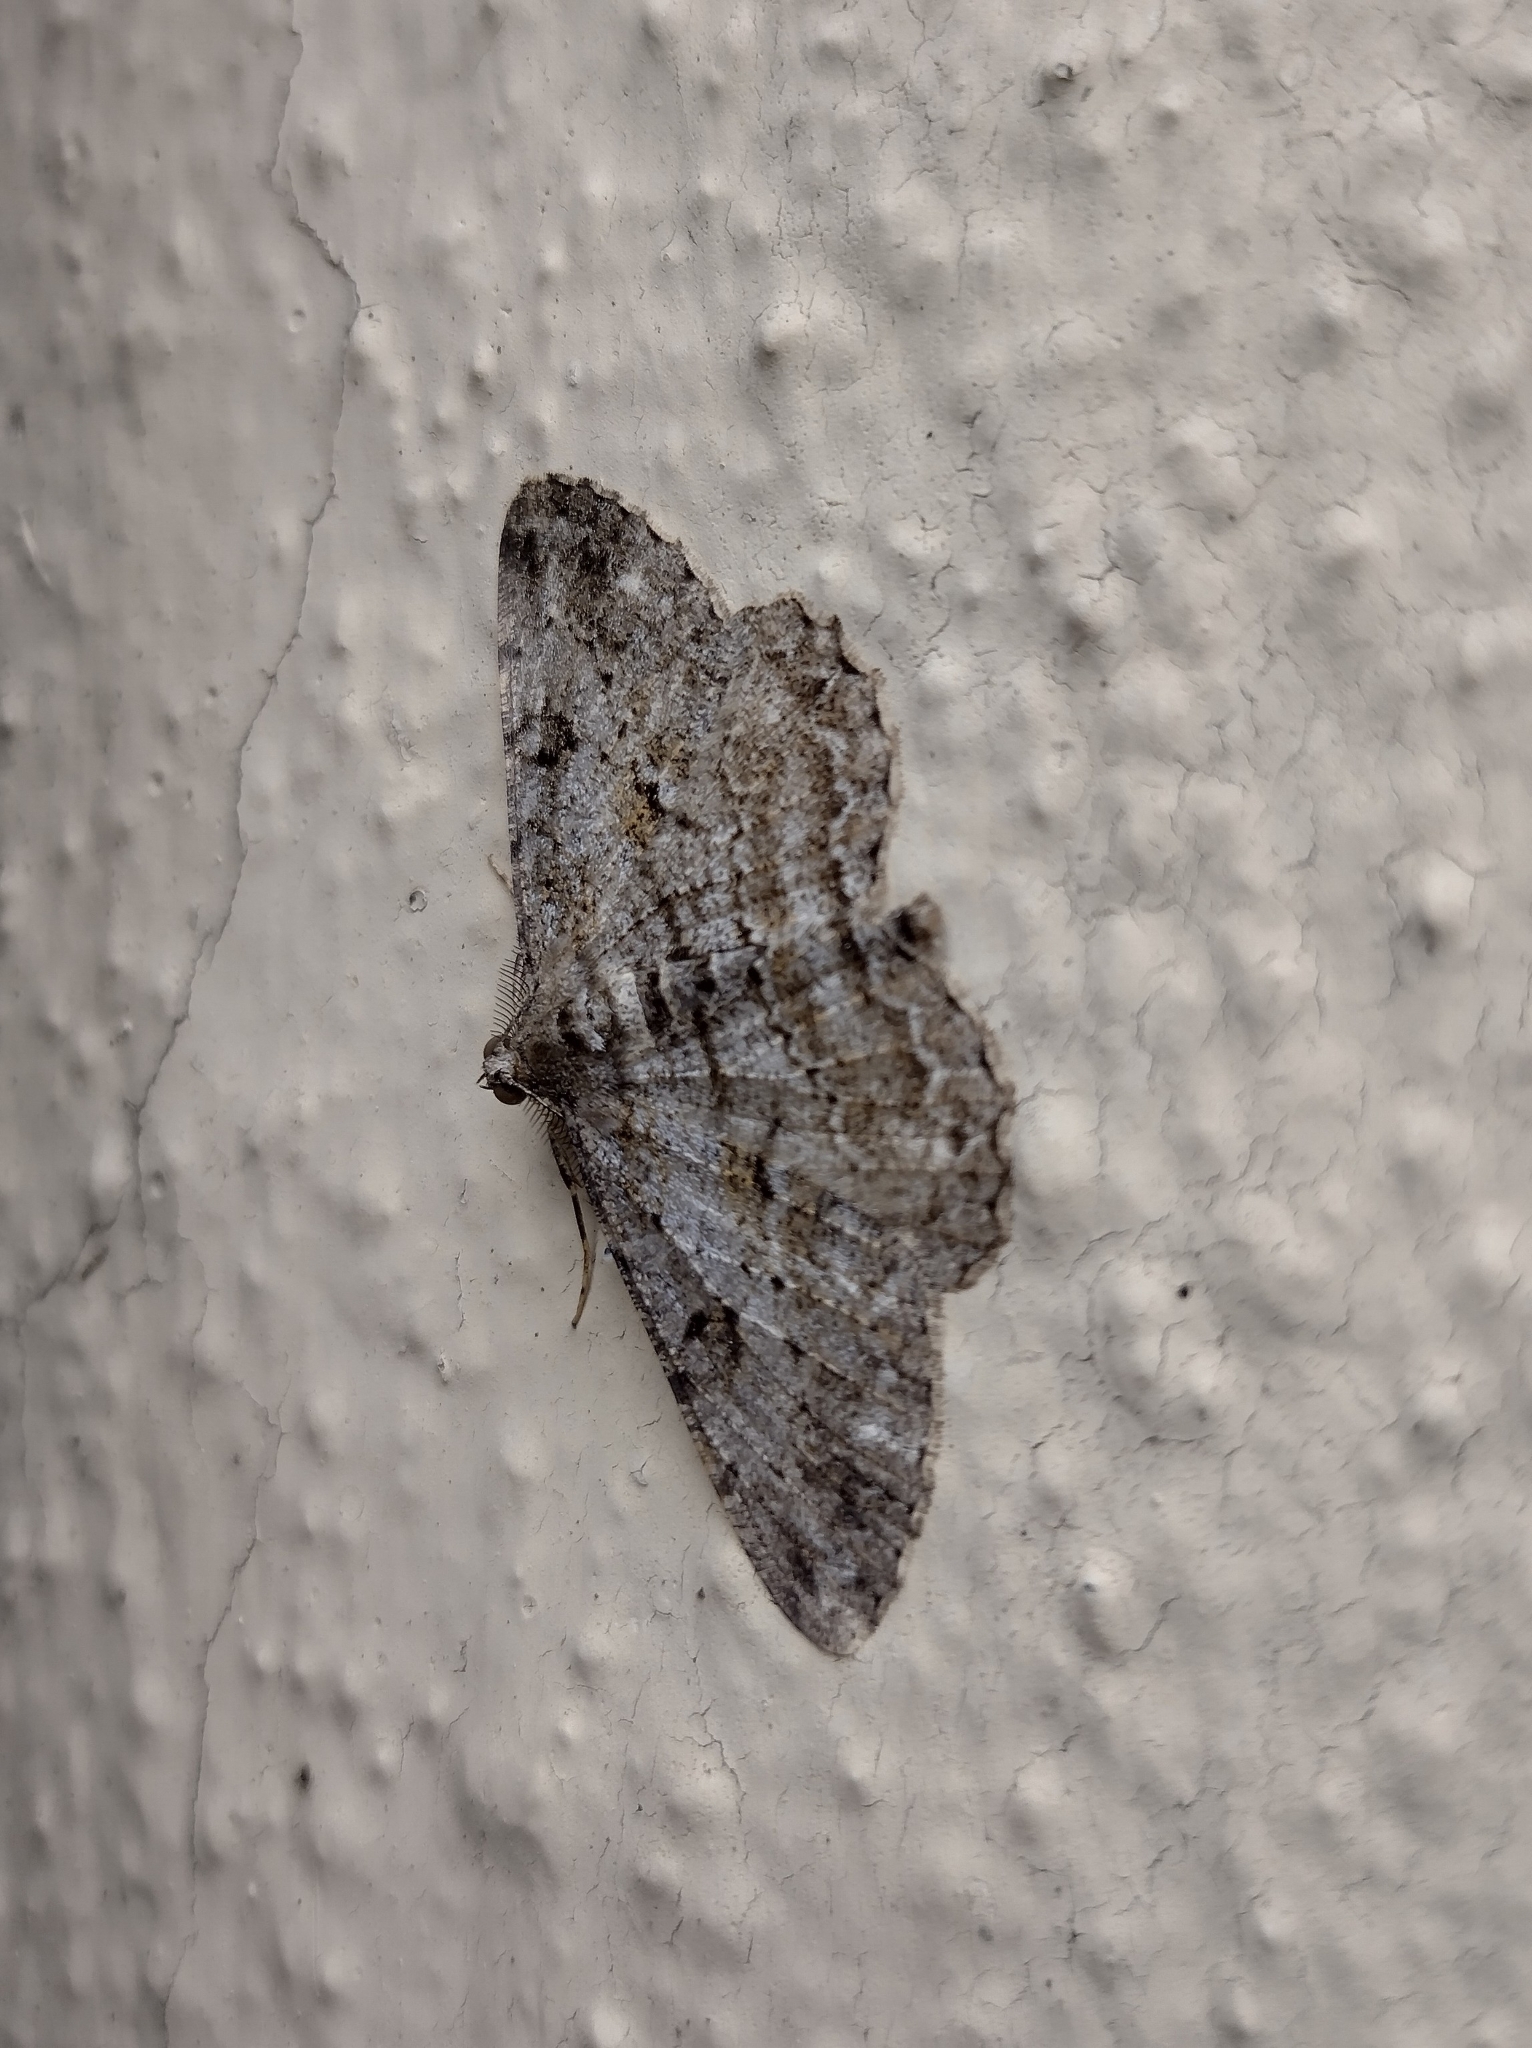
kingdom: Animalia
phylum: Arthropoda
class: Insecta
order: Lepidoptera
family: Geometridae
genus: Peribatodes
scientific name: Peribatodes rhomboidaria
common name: Willow beauty
